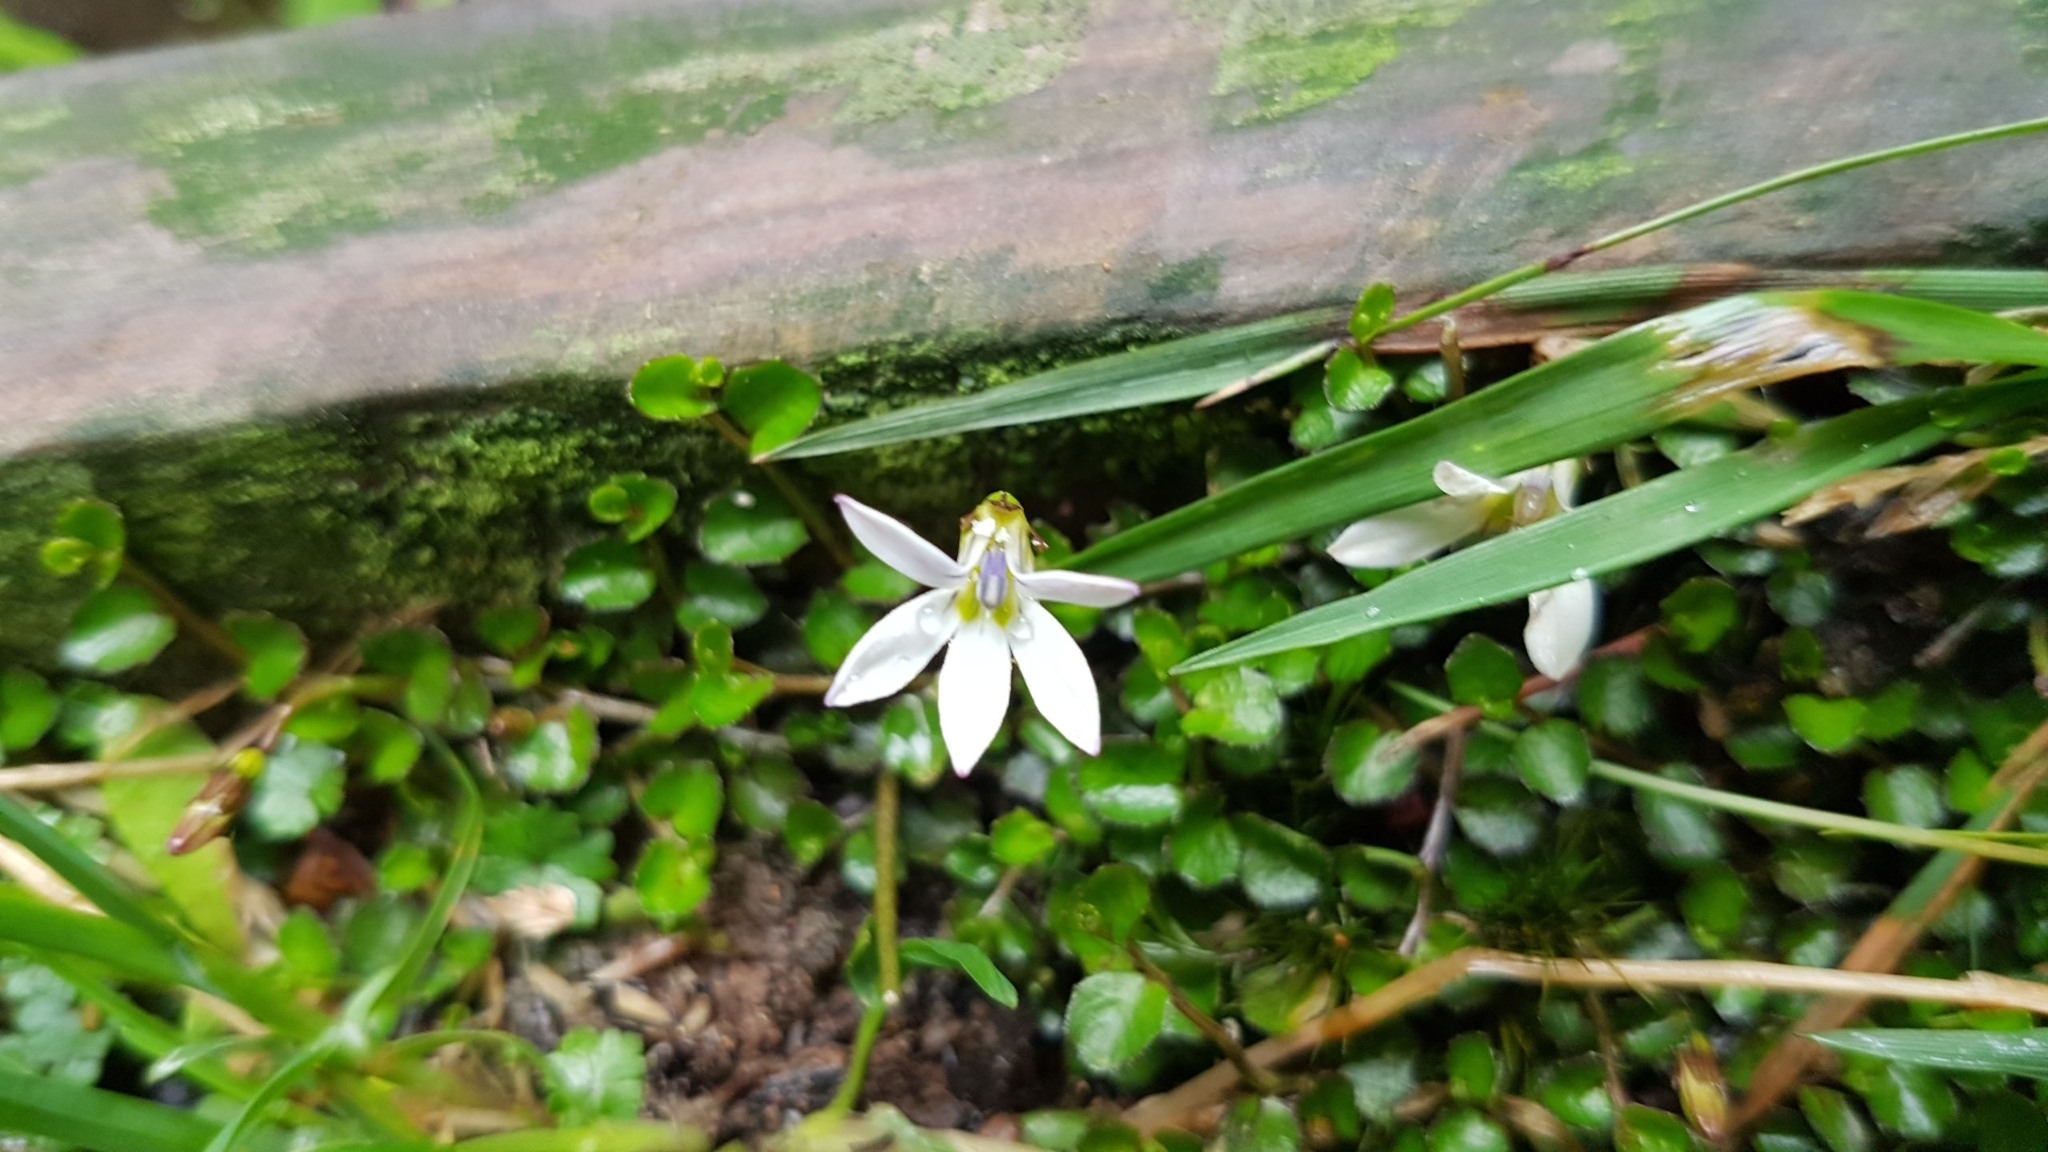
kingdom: Plantae
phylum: Tracheophyta
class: Magnoliopsida
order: Asterales
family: Campanulaceae
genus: Lobelia
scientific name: Lobelia angulata
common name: Lawn lobelia
